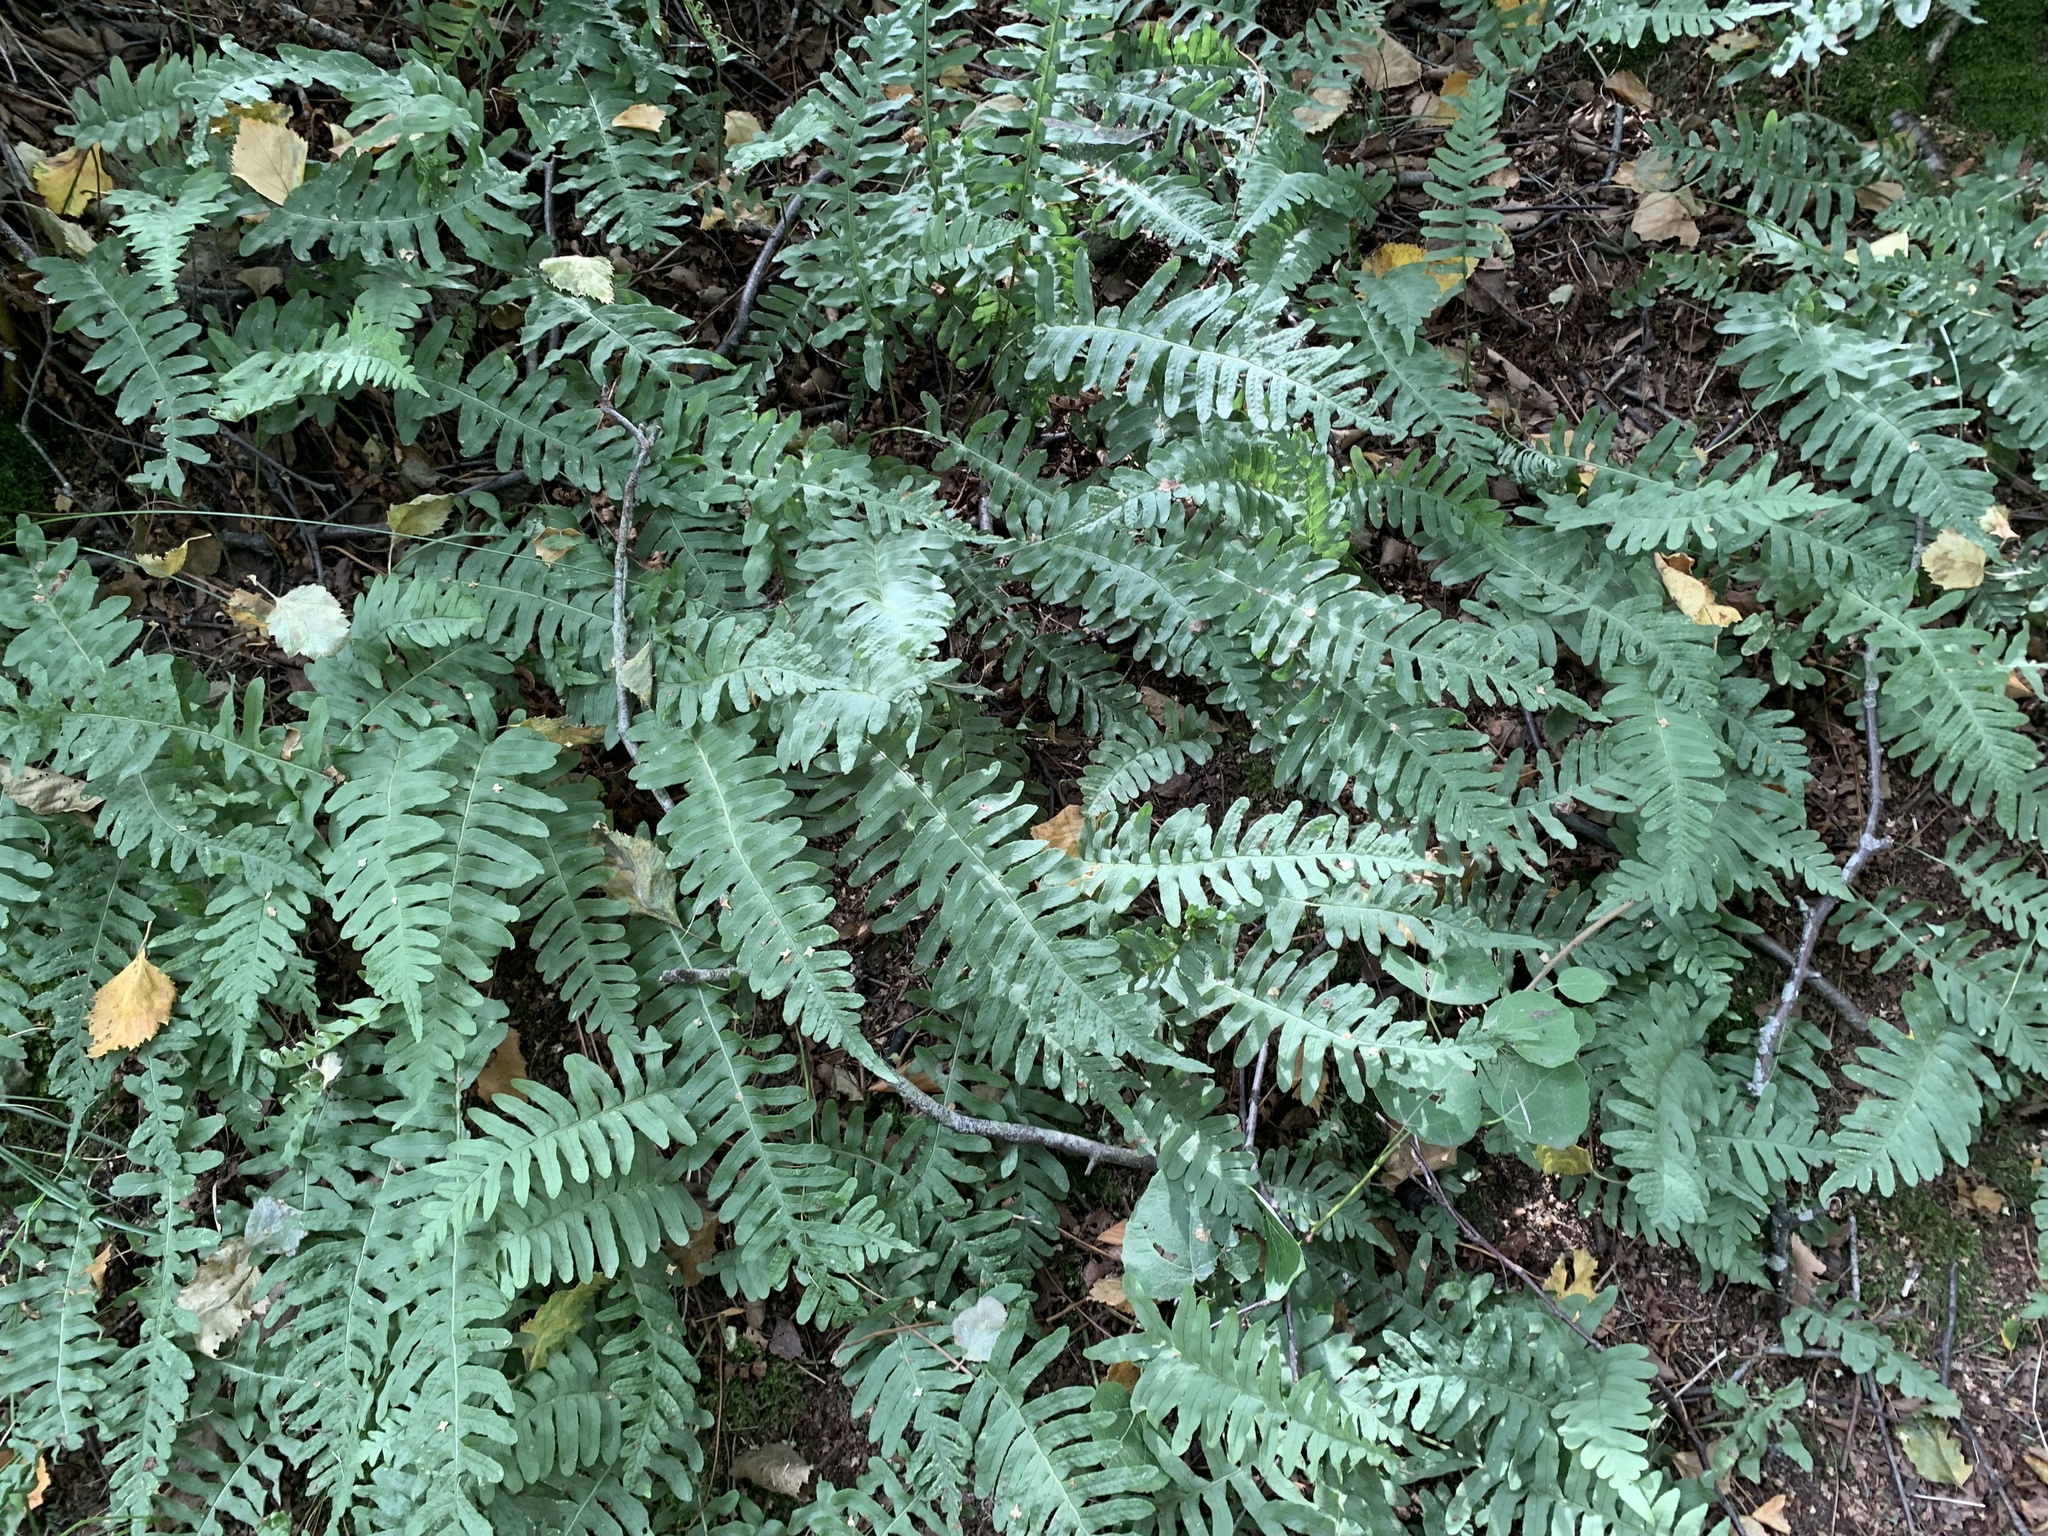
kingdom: Plantae
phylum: Tracheophyta
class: Polypodiopsida
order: Polypodiales
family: Polypodiaceae
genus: Polypodium
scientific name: Polypodium vulgare
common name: Common polypody
